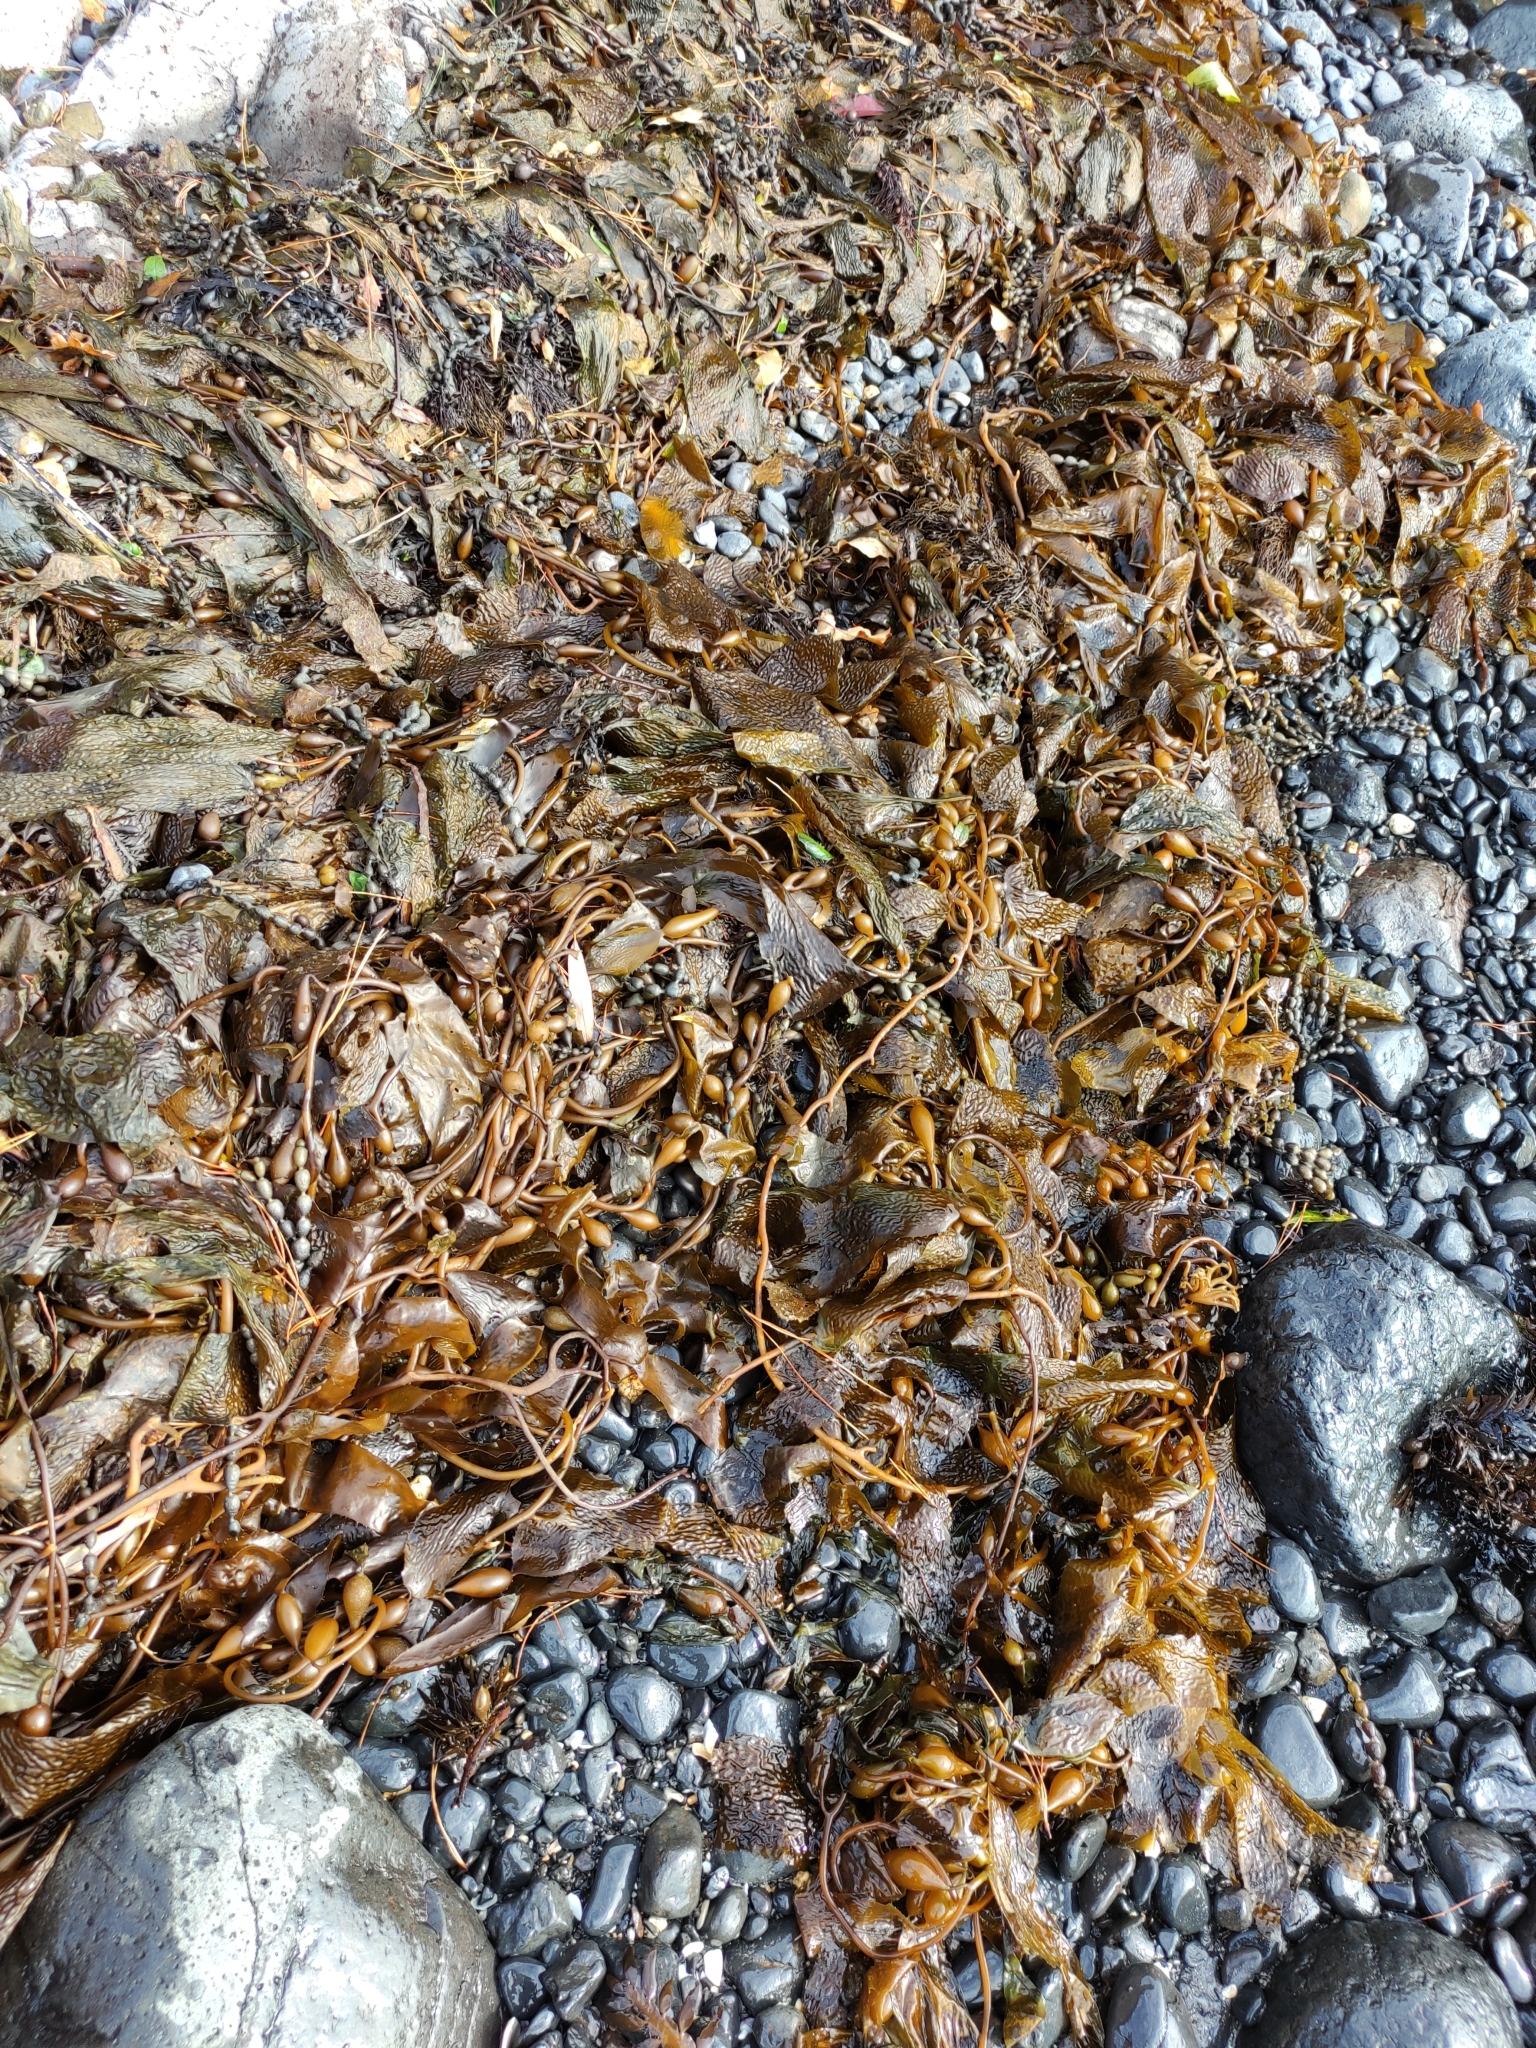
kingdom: Chromista
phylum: Ochrophyta
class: Phaeophyceae
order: Laminariales
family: Laminariaceae
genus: Macrocystis
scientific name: Macrocystis pyrifera
